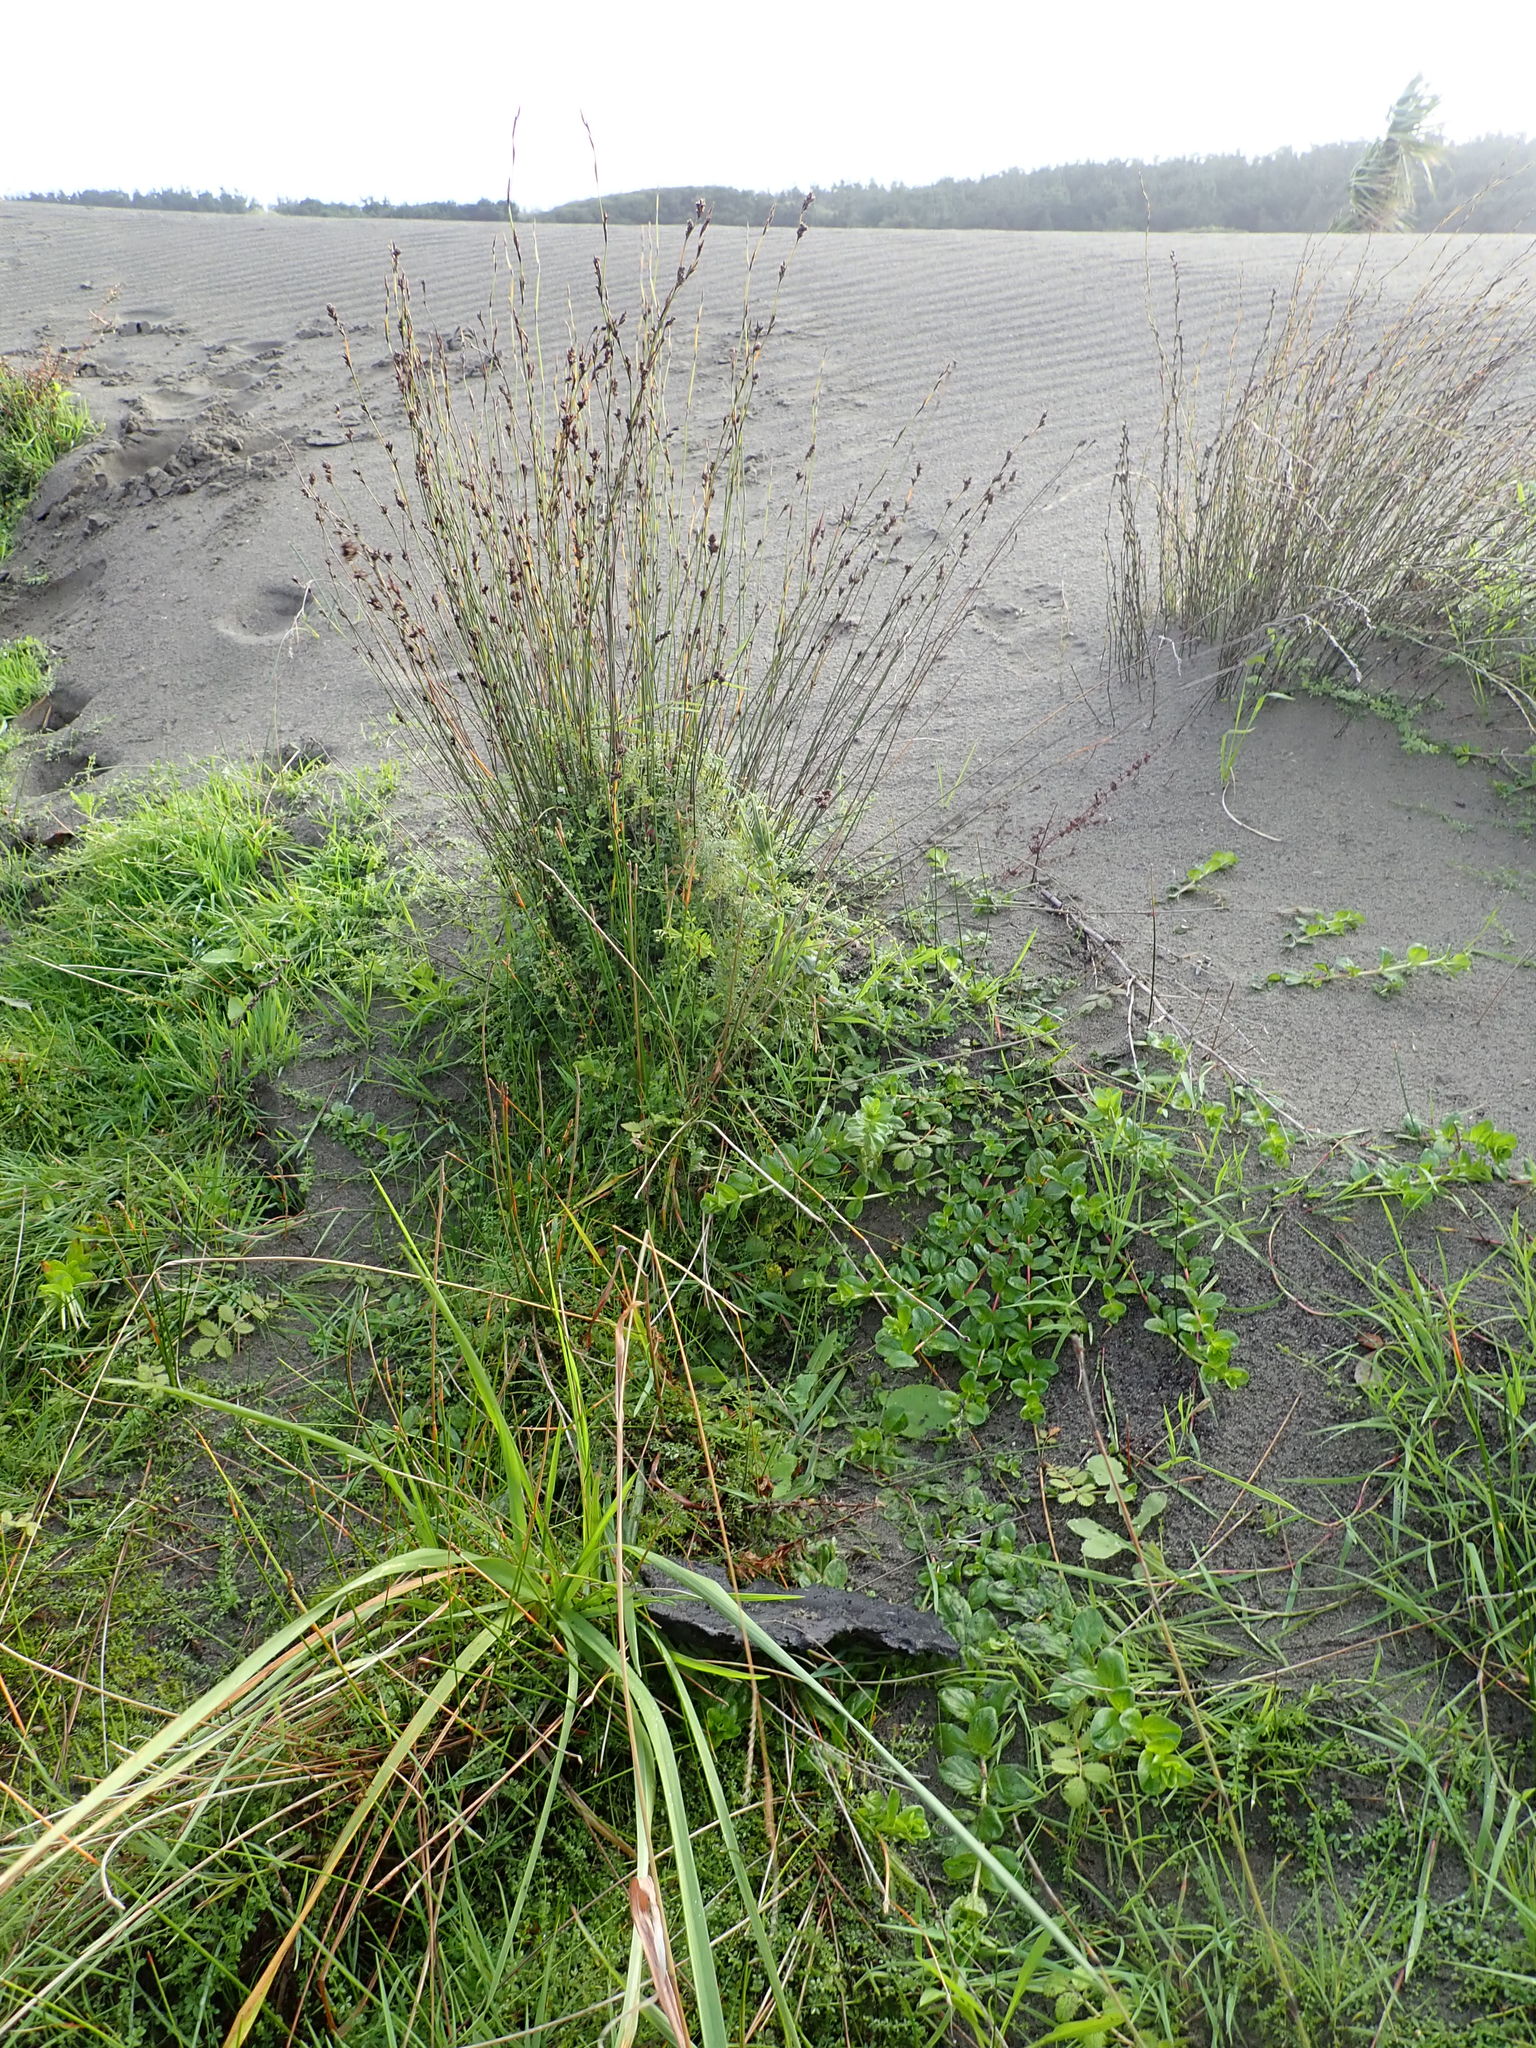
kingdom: Plantae
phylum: Tracheophyta
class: Magnoliopsida
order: Myrtales
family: Onagraceae
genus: Epilobium
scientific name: Epilobium billardiereanum
